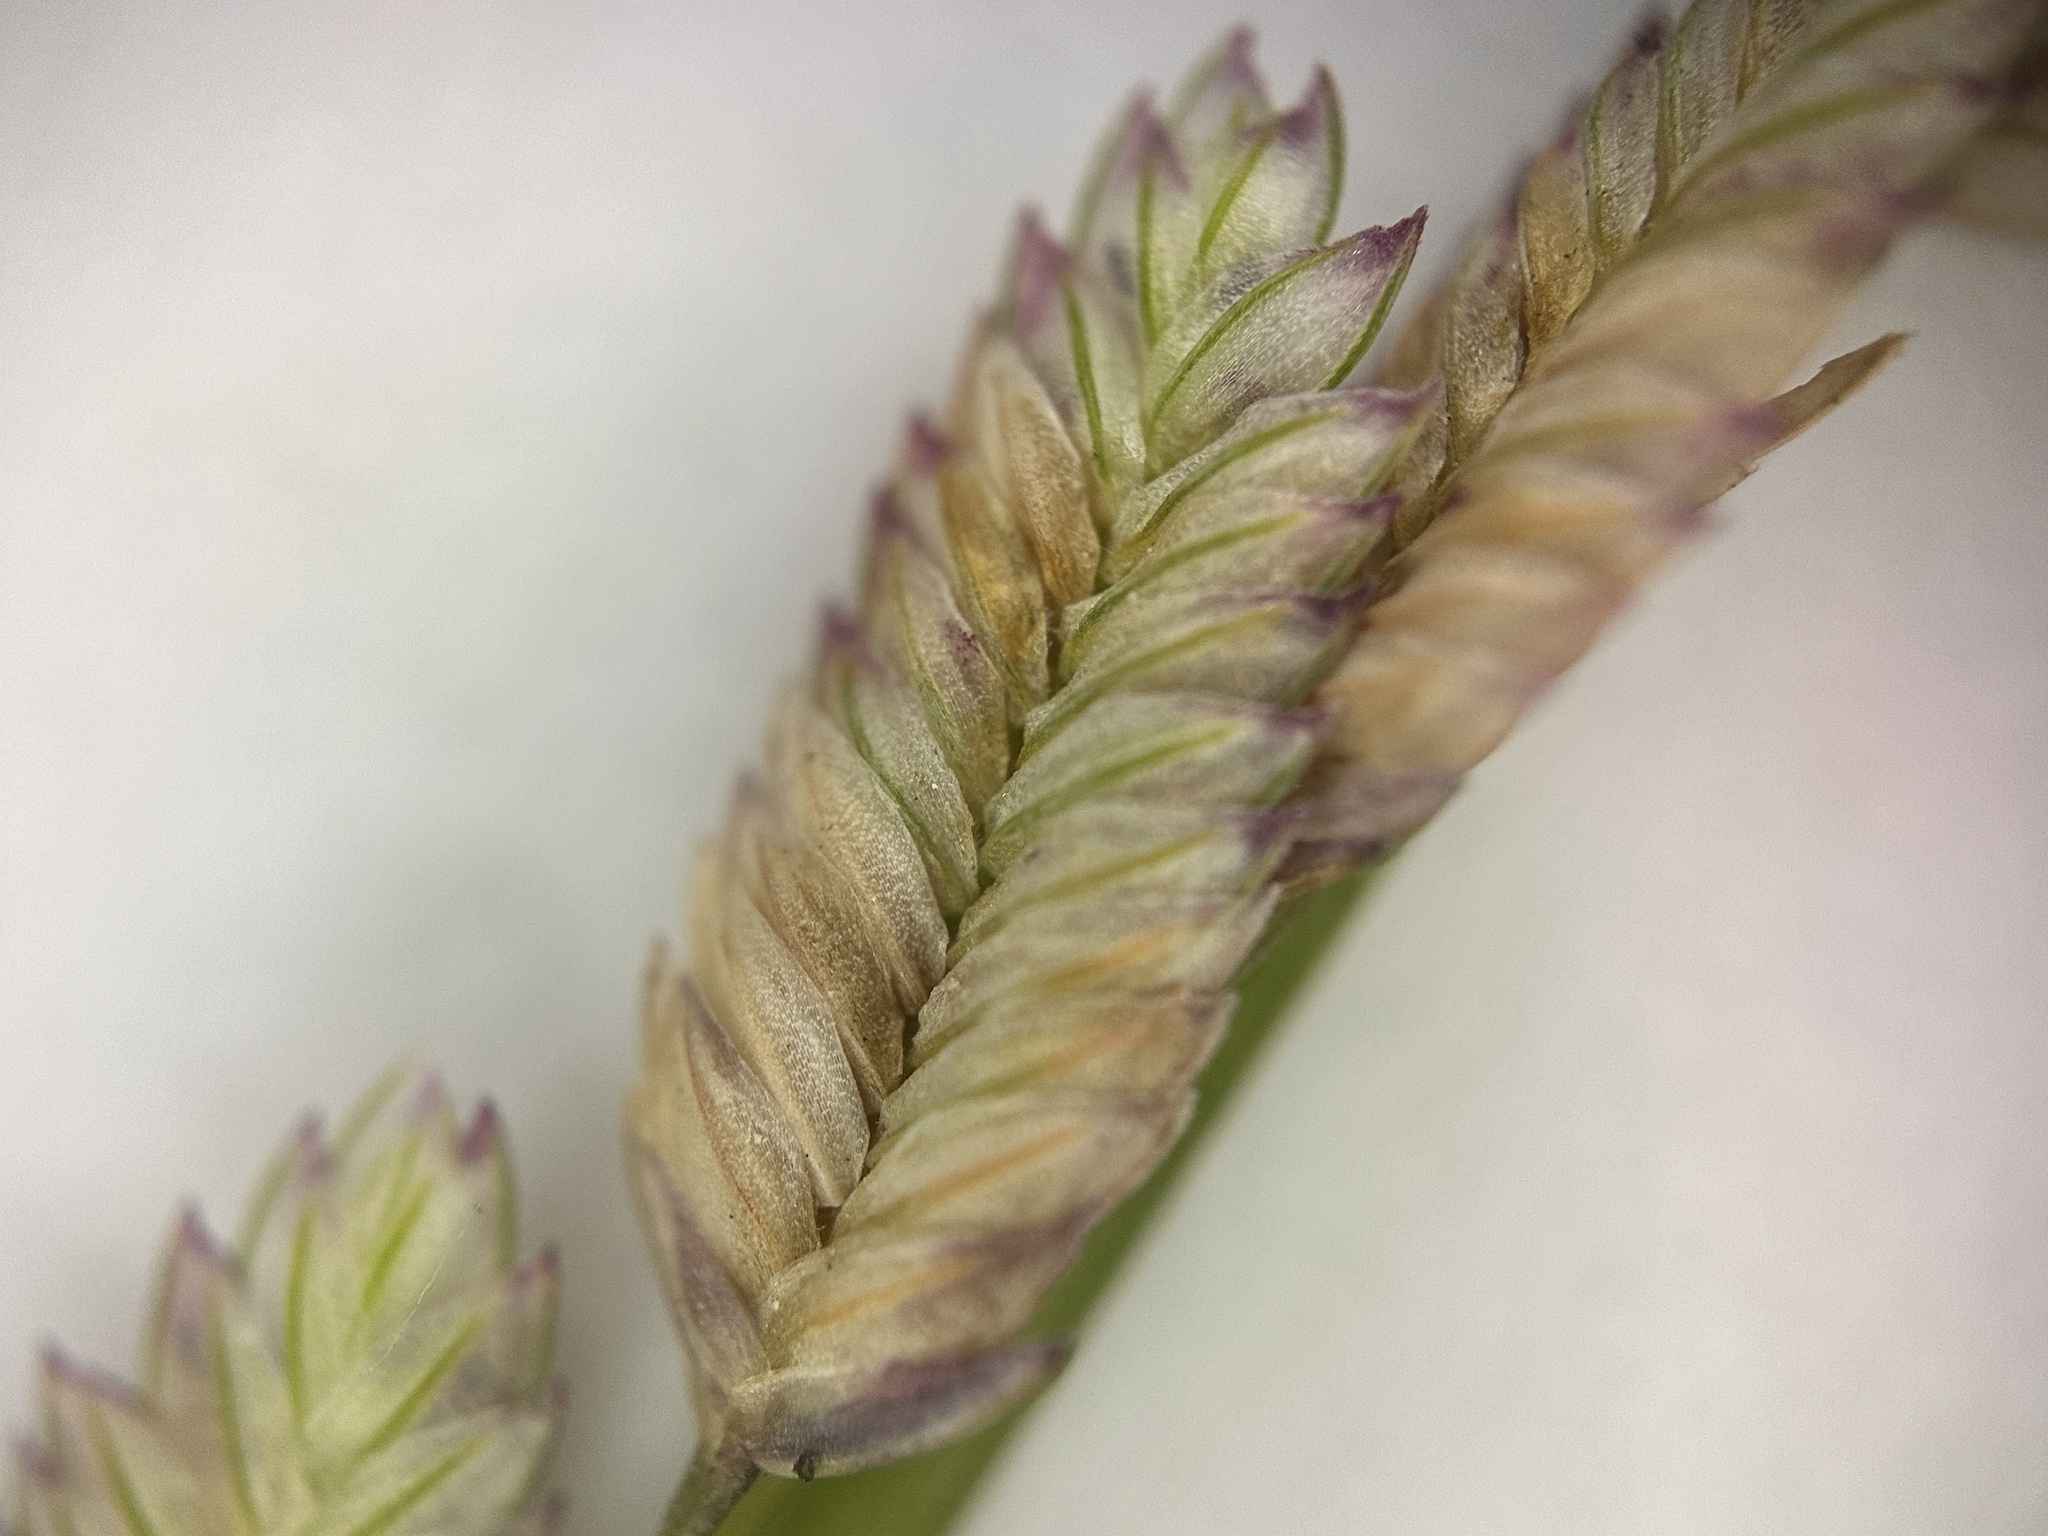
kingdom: Plantae
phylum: Tracheophyta
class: Liliopsida
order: Poales
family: Poaceae
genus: Eragrostis
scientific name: Eragrostis unioloides
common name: Chinese lovegrass
